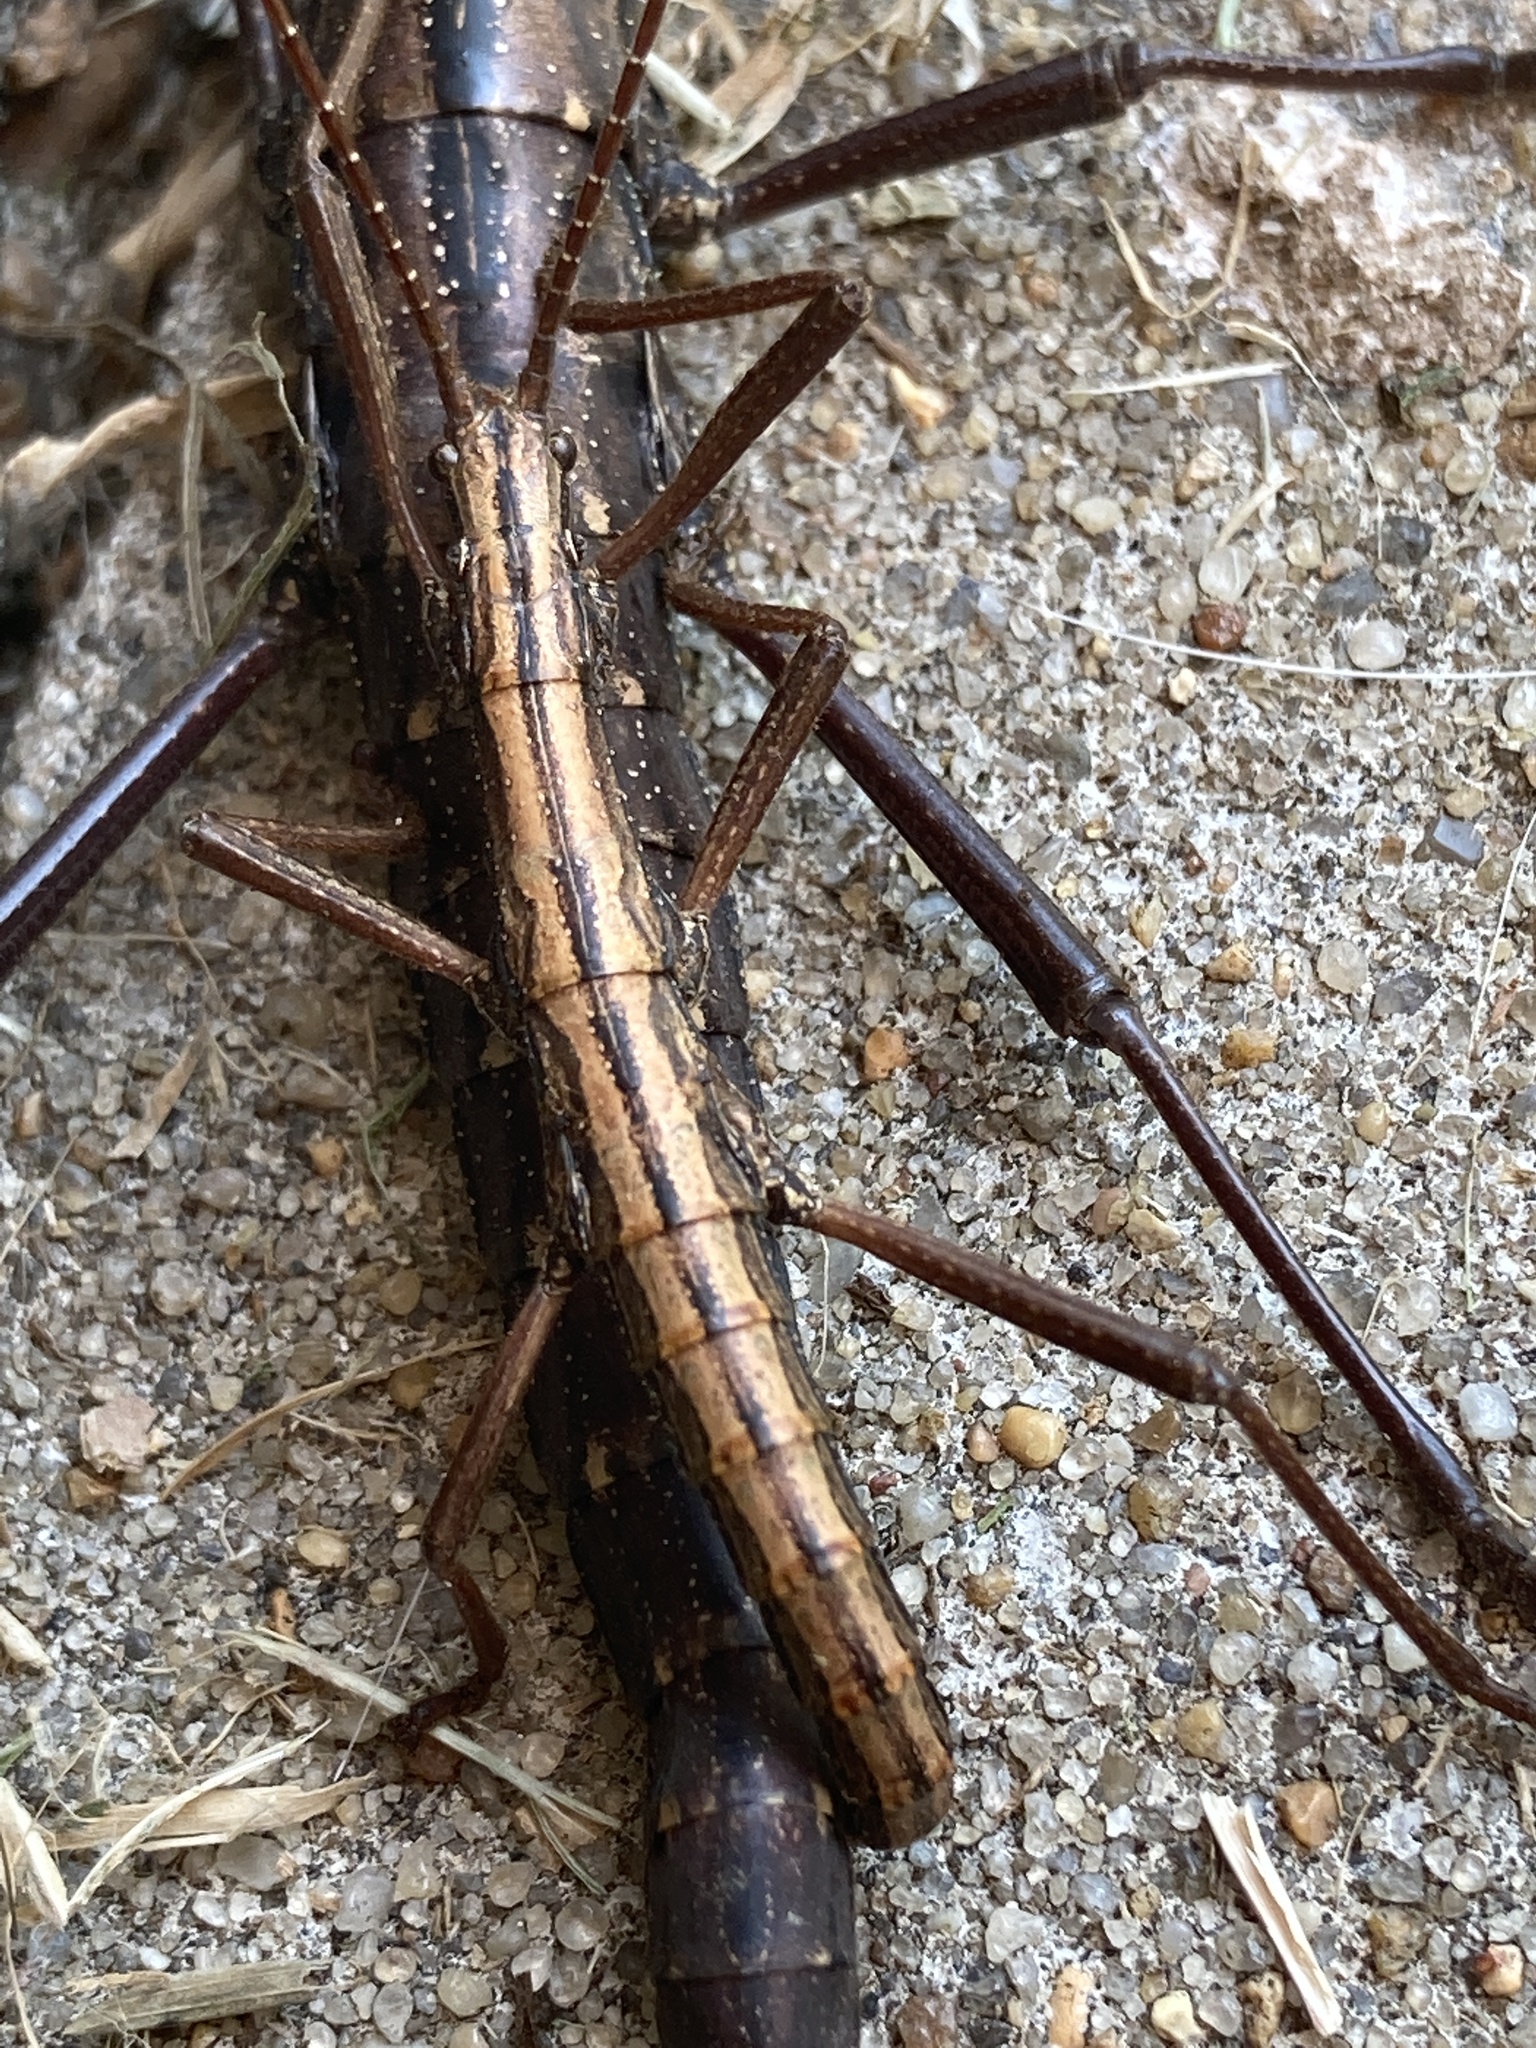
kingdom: Animalia
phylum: Arthropoda
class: Insecta
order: Phasmida
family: Pseudophasmatidae
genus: Anisomorpha
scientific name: Anisomorpha buprestoides
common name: Florida stick insect
